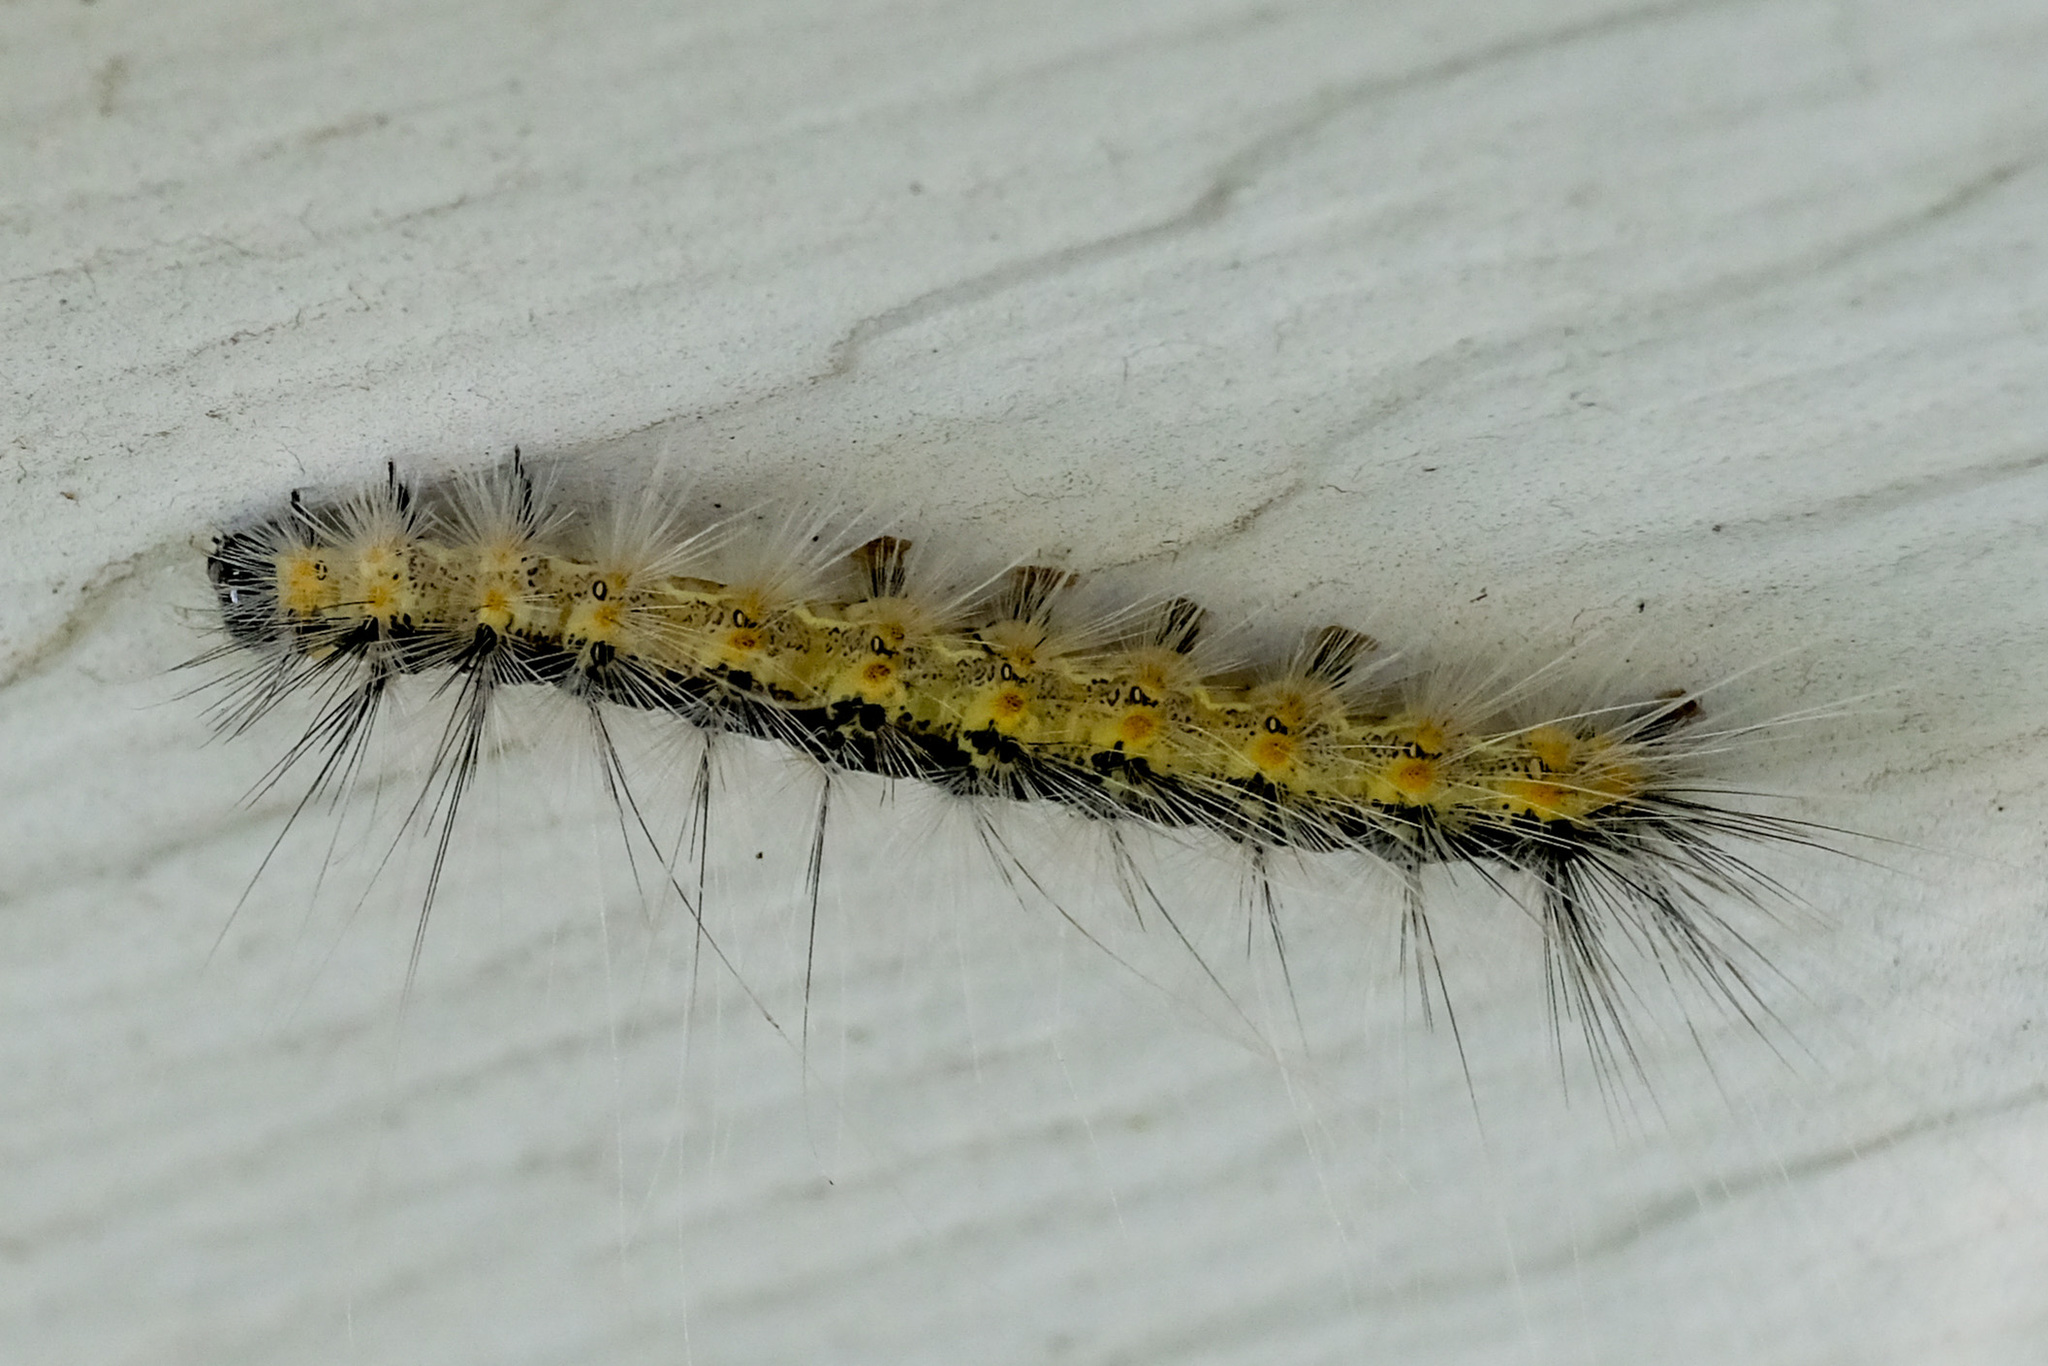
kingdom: Animalia
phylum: Arthropoda
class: Insecta
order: Lepidoptera
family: Erebidae
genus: Hyphantria
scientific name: Hyphantria cunea
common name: American white moth
